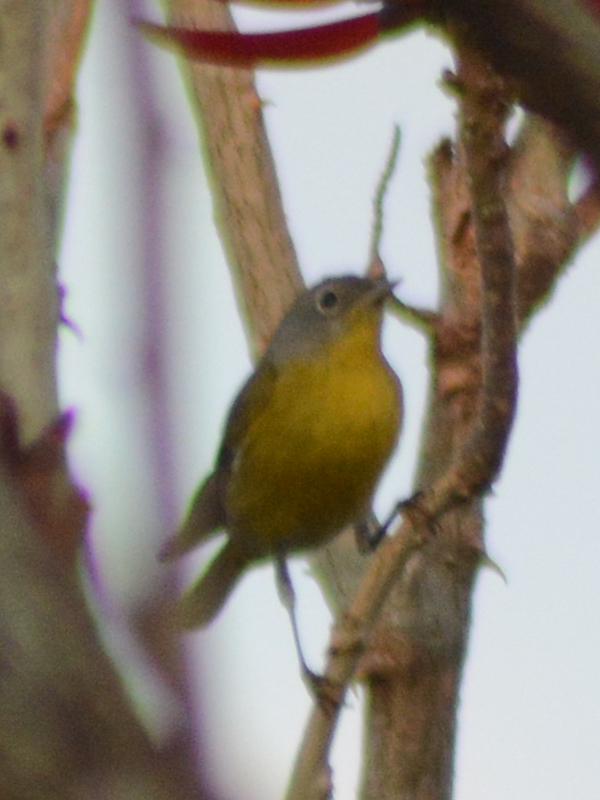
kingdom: Animalia
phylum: Chordata
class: Aves
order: Passeriformes
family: Parulidae
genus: Leiothlypis
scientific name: Leiothlypis ruficapilla
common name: Nashville warbler
